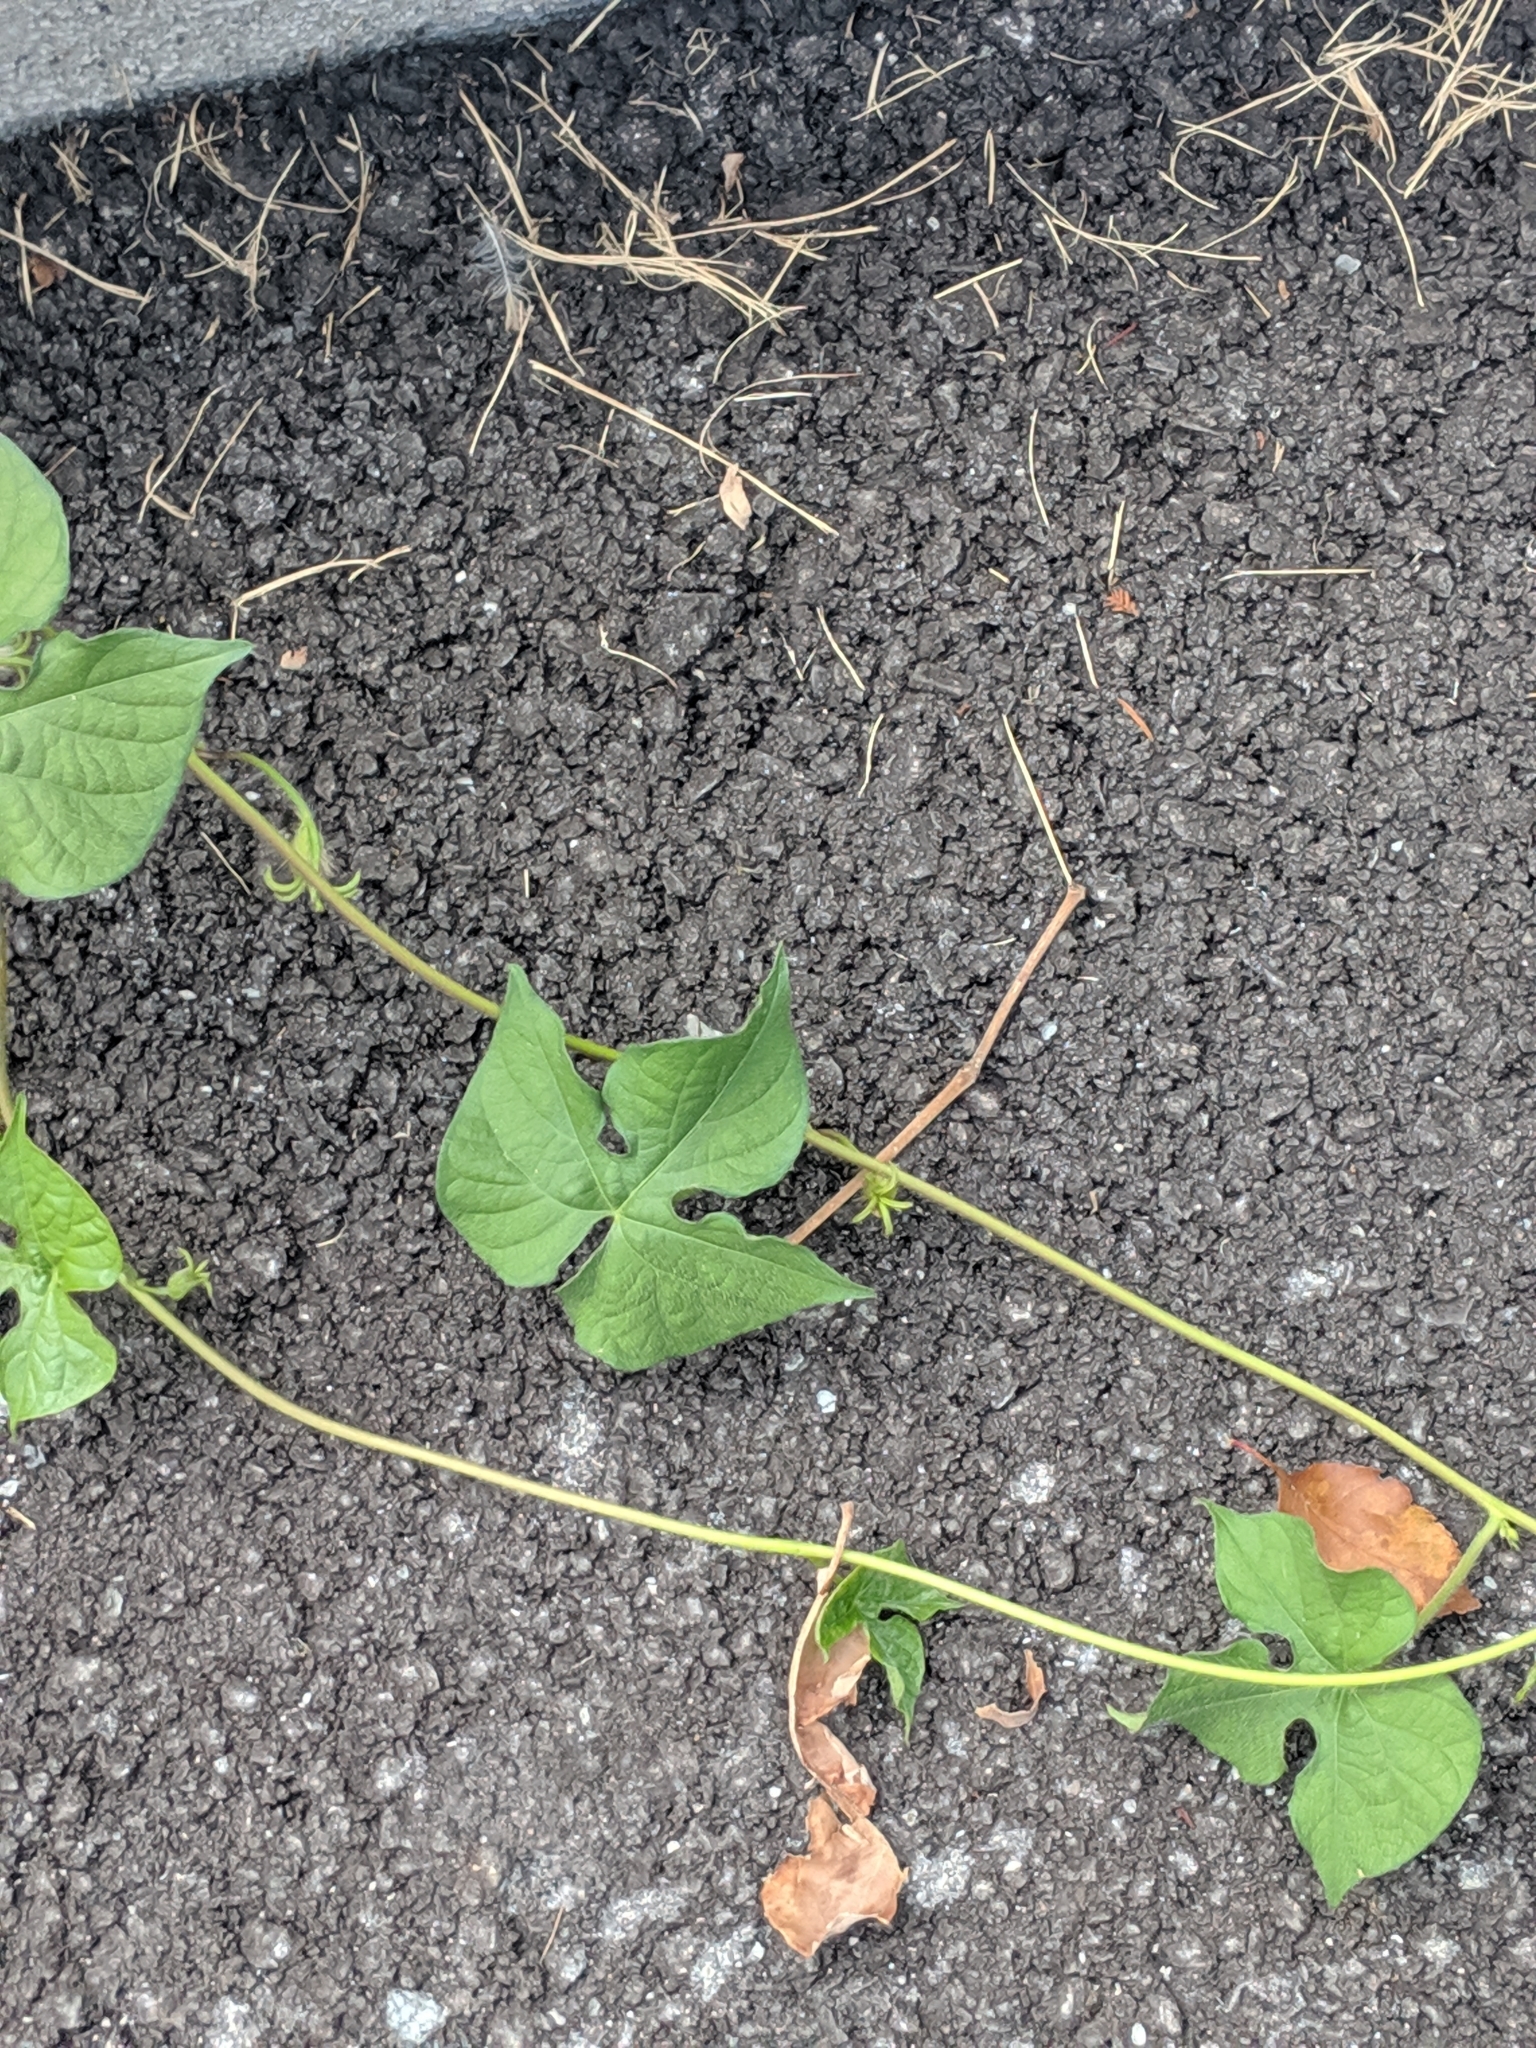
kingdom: Plantae
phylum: Tracheophyta
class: Magnoliopsida
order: Solanales
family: Convolvulaceae
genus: Ipomoea
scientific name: Ipomoea hederacea
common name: Ivy-leaved morning-glory
